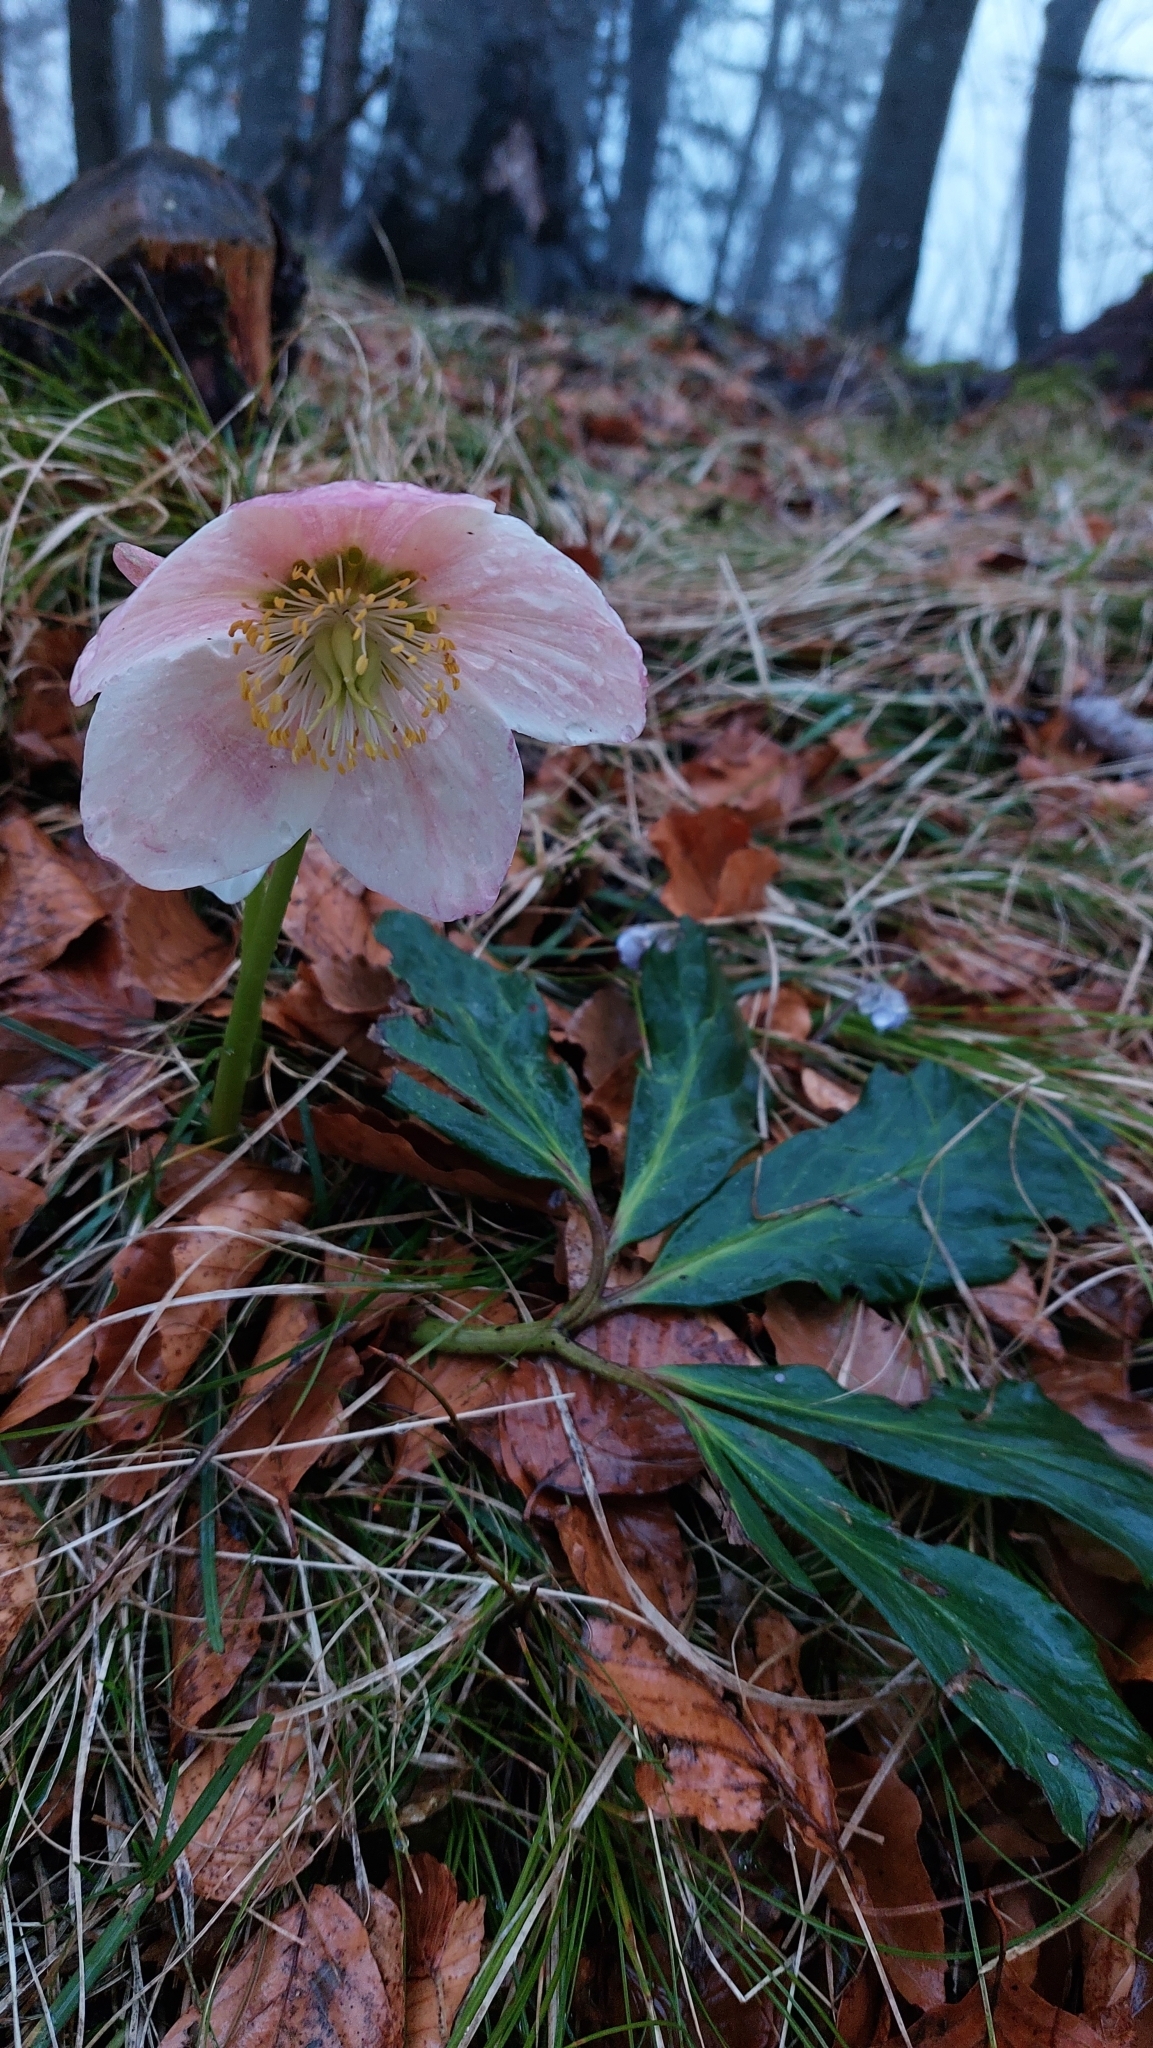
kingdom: Plantae
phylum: Tracheophyta
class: Magnoliopsida
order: Ranunculales
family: Ranunculaceae
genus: Helleborus
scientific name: Helleborus niger
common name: Black hellebore
